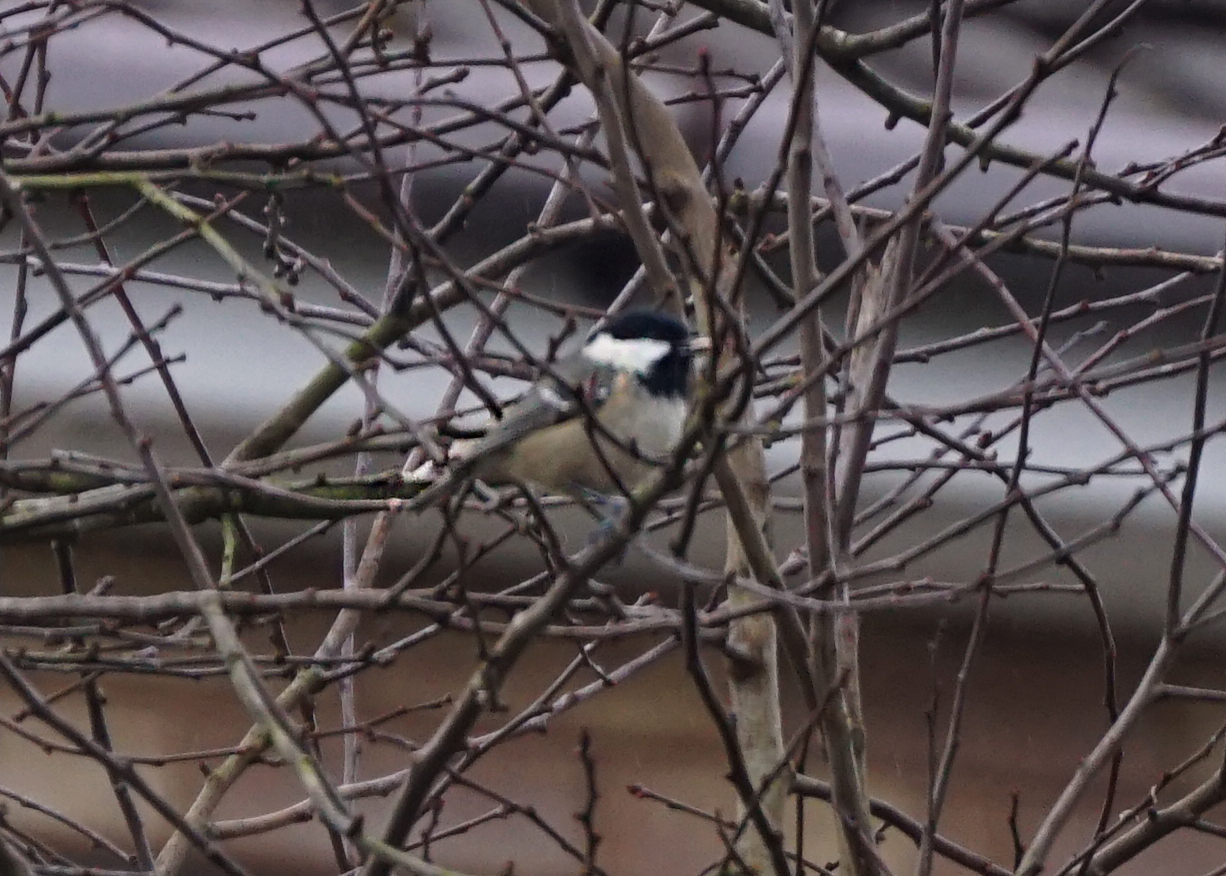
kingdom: Animalia
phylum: Chordata
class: Aves
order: Passeriformes
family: Paridae
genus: Periparus
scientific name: Periparus ater
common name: Coal tit
